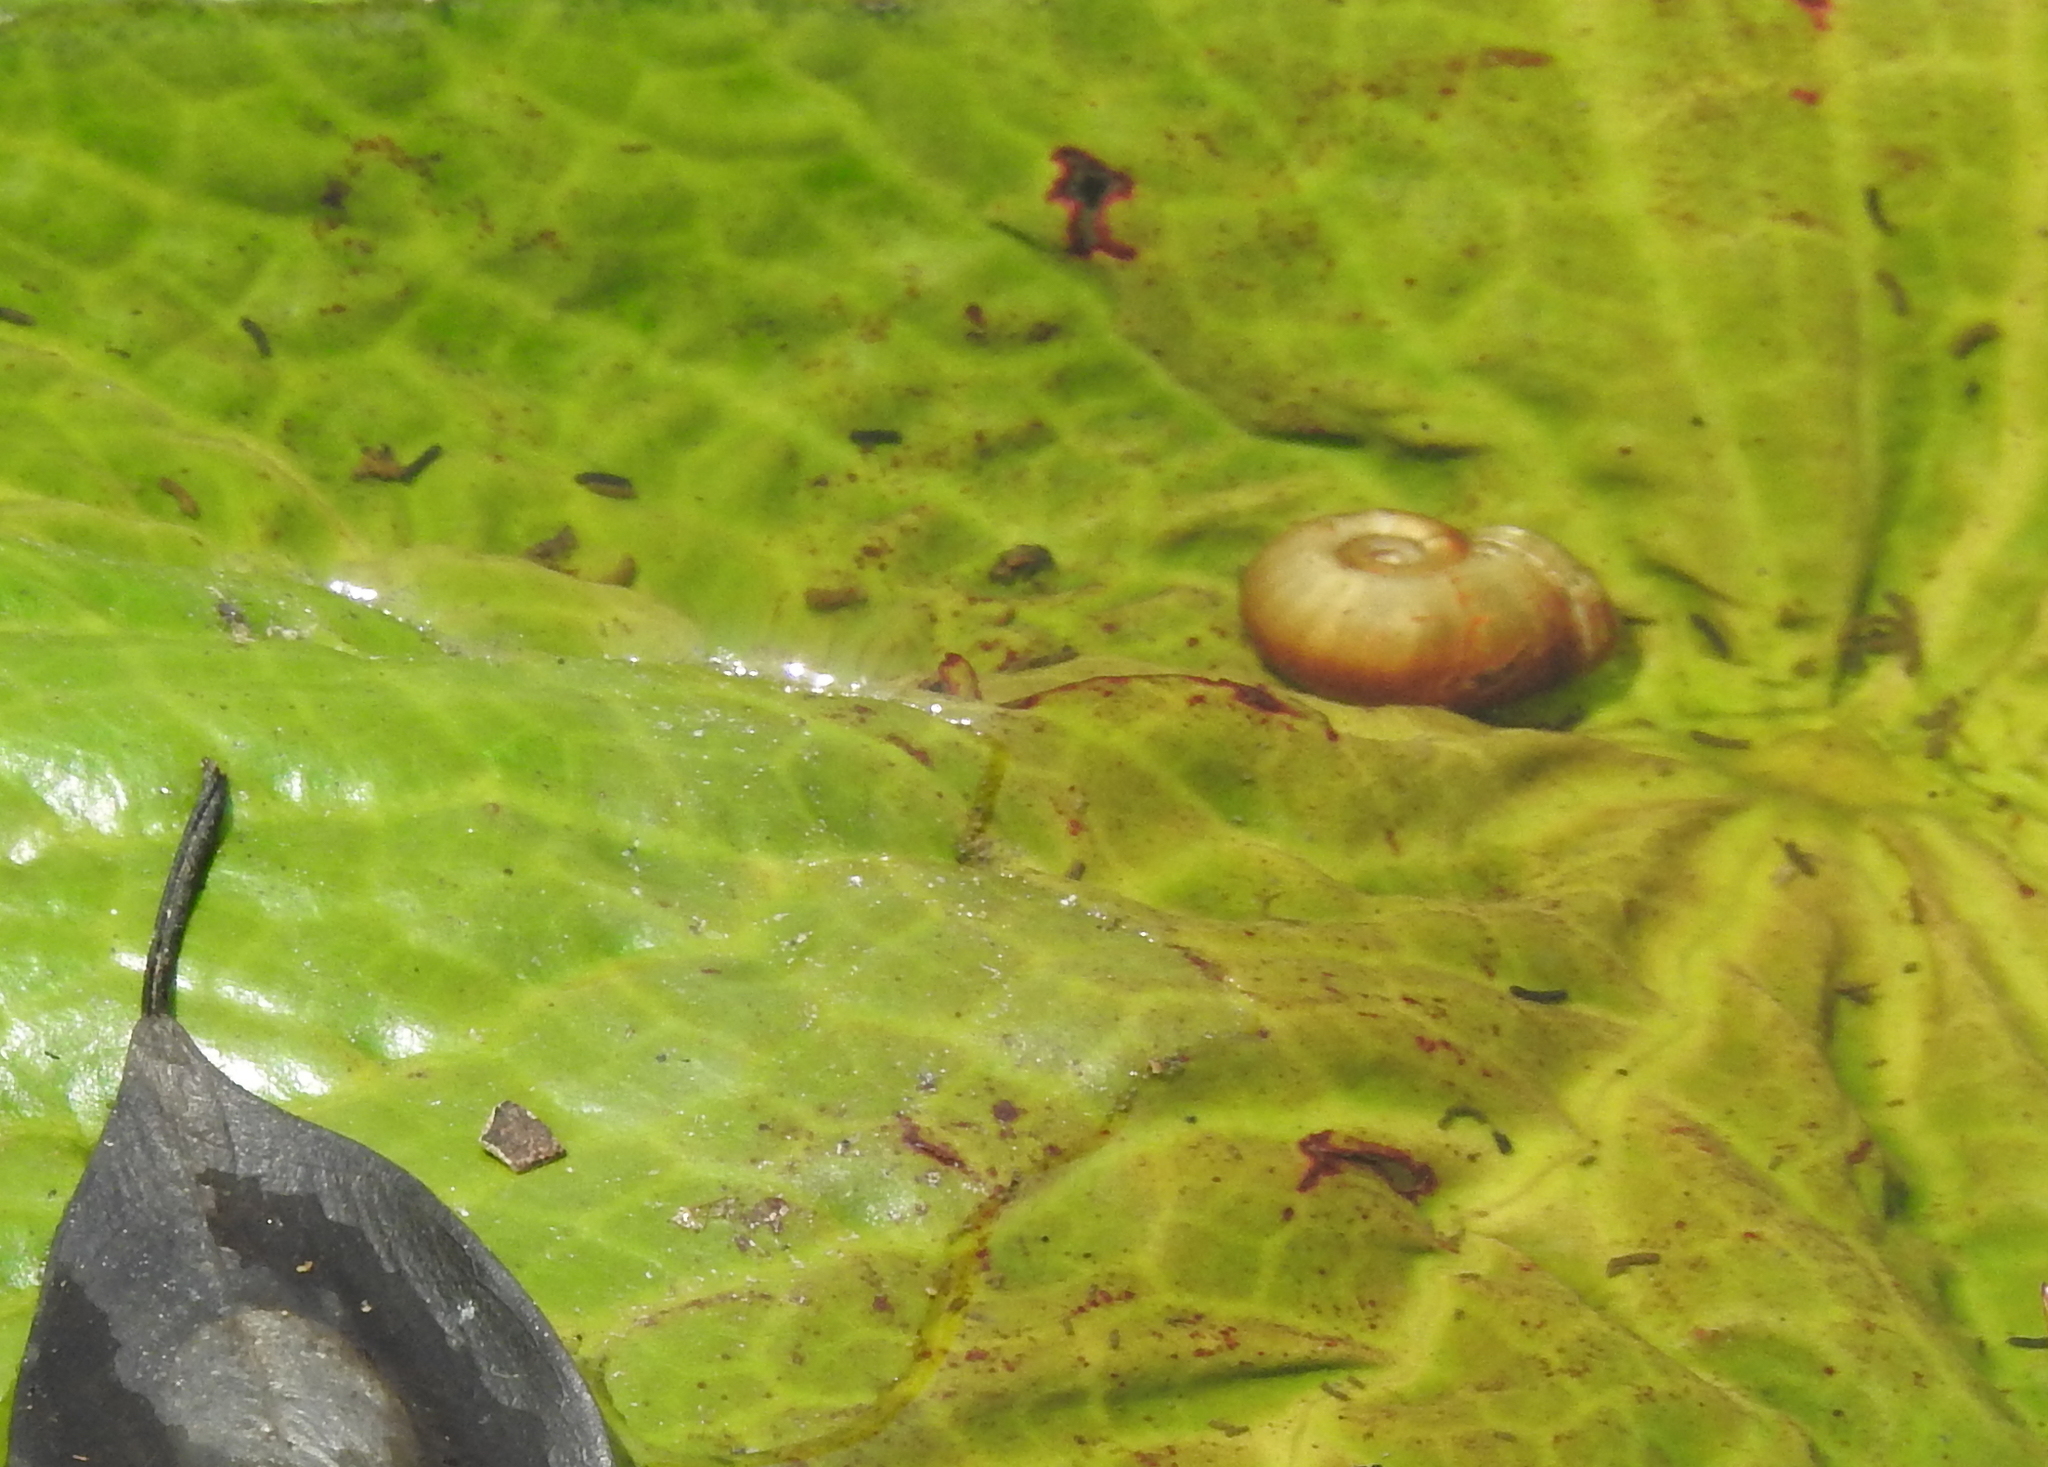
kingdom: Animalia
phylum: Mollusca
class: Gastropoda
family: Bulinidae
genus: Indoplanorbis
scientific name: Indoplanorbis exustus
